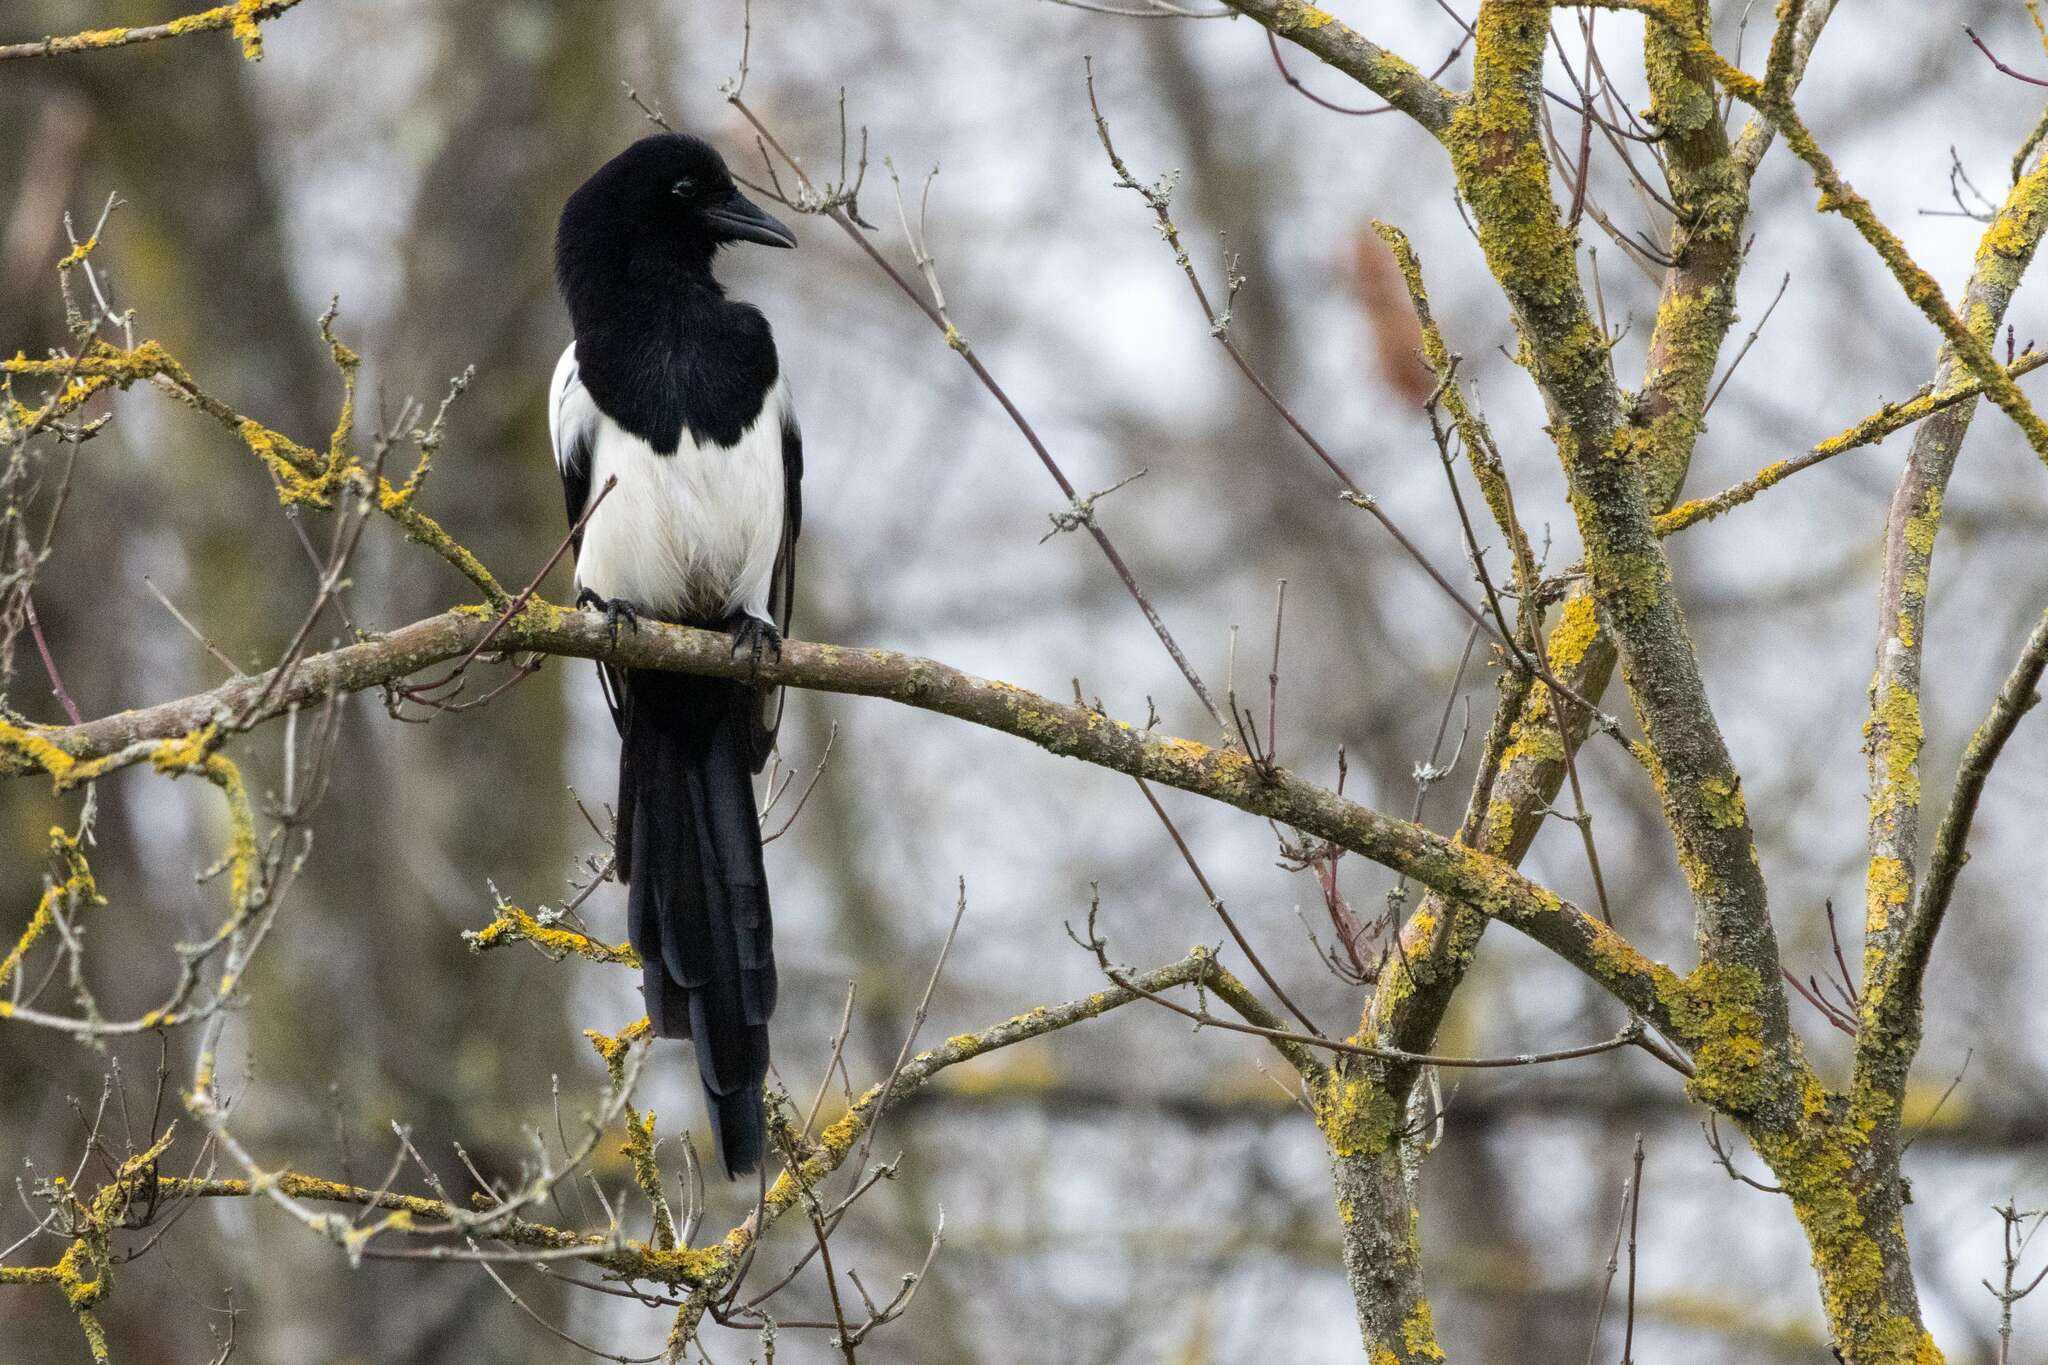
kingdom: Animalia
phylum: Chordata
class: Aves
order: Passeriformes
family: Corvidae
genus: Pica
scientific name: Pica pica
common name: Eurasian magpie
